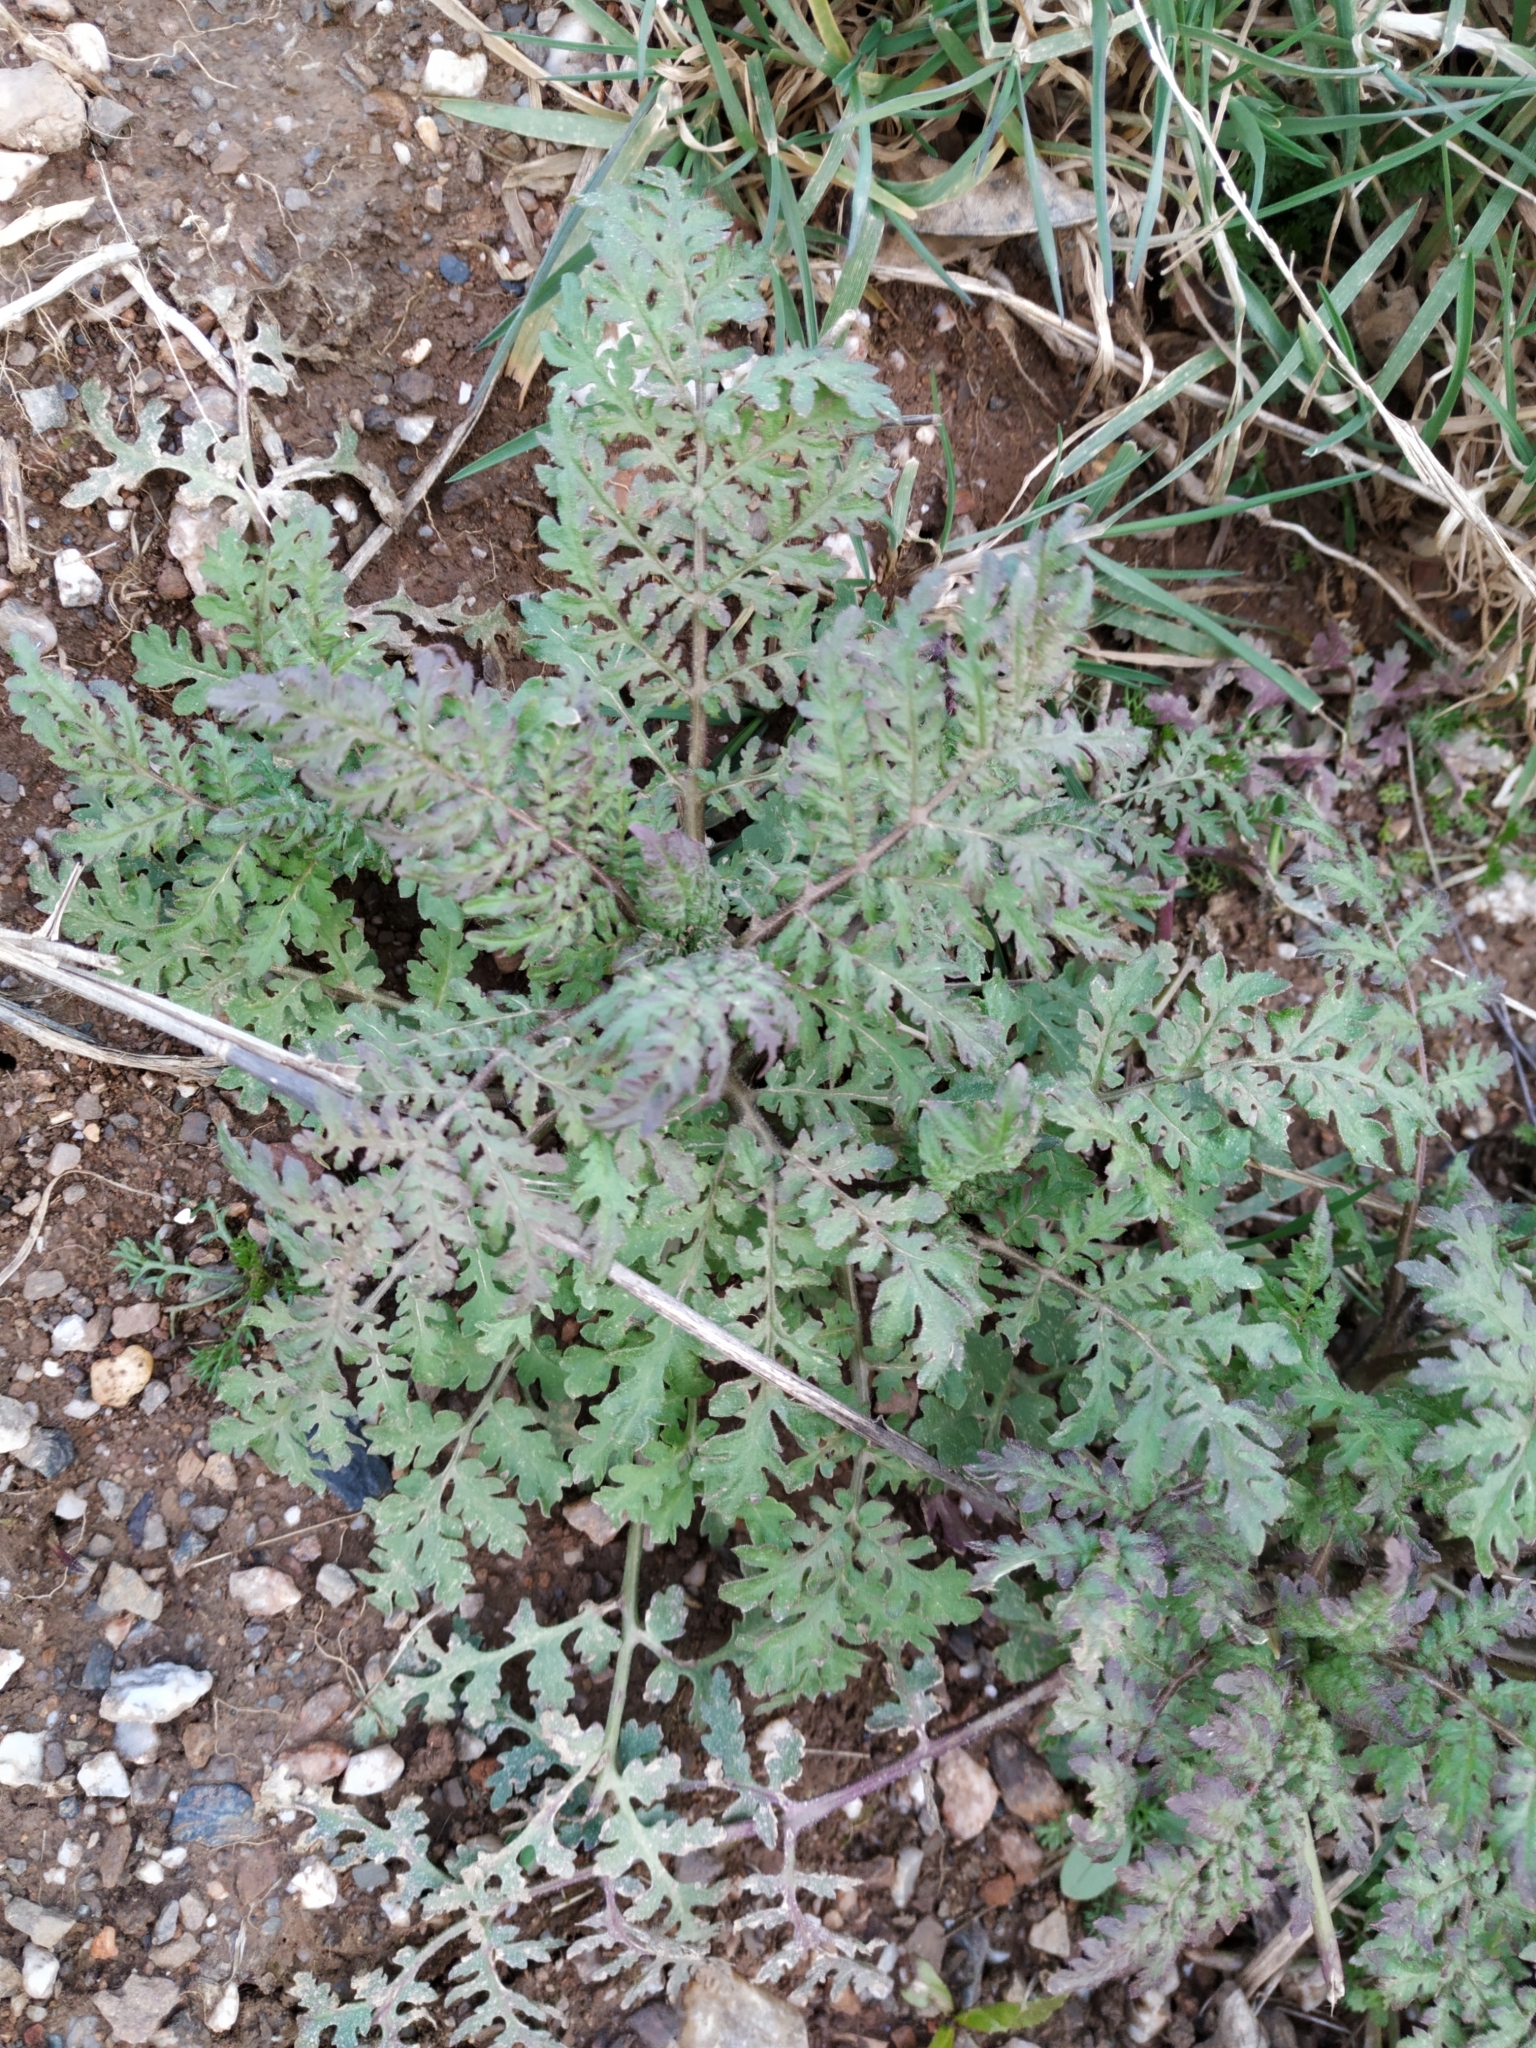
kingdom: Plantae
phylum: Tracheophyta
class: Magnoliopsida
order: Boraginales
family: Hydrophyllaceae
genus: Phacelia
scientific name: Phacelia tanacetifolia
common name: Phacelia
